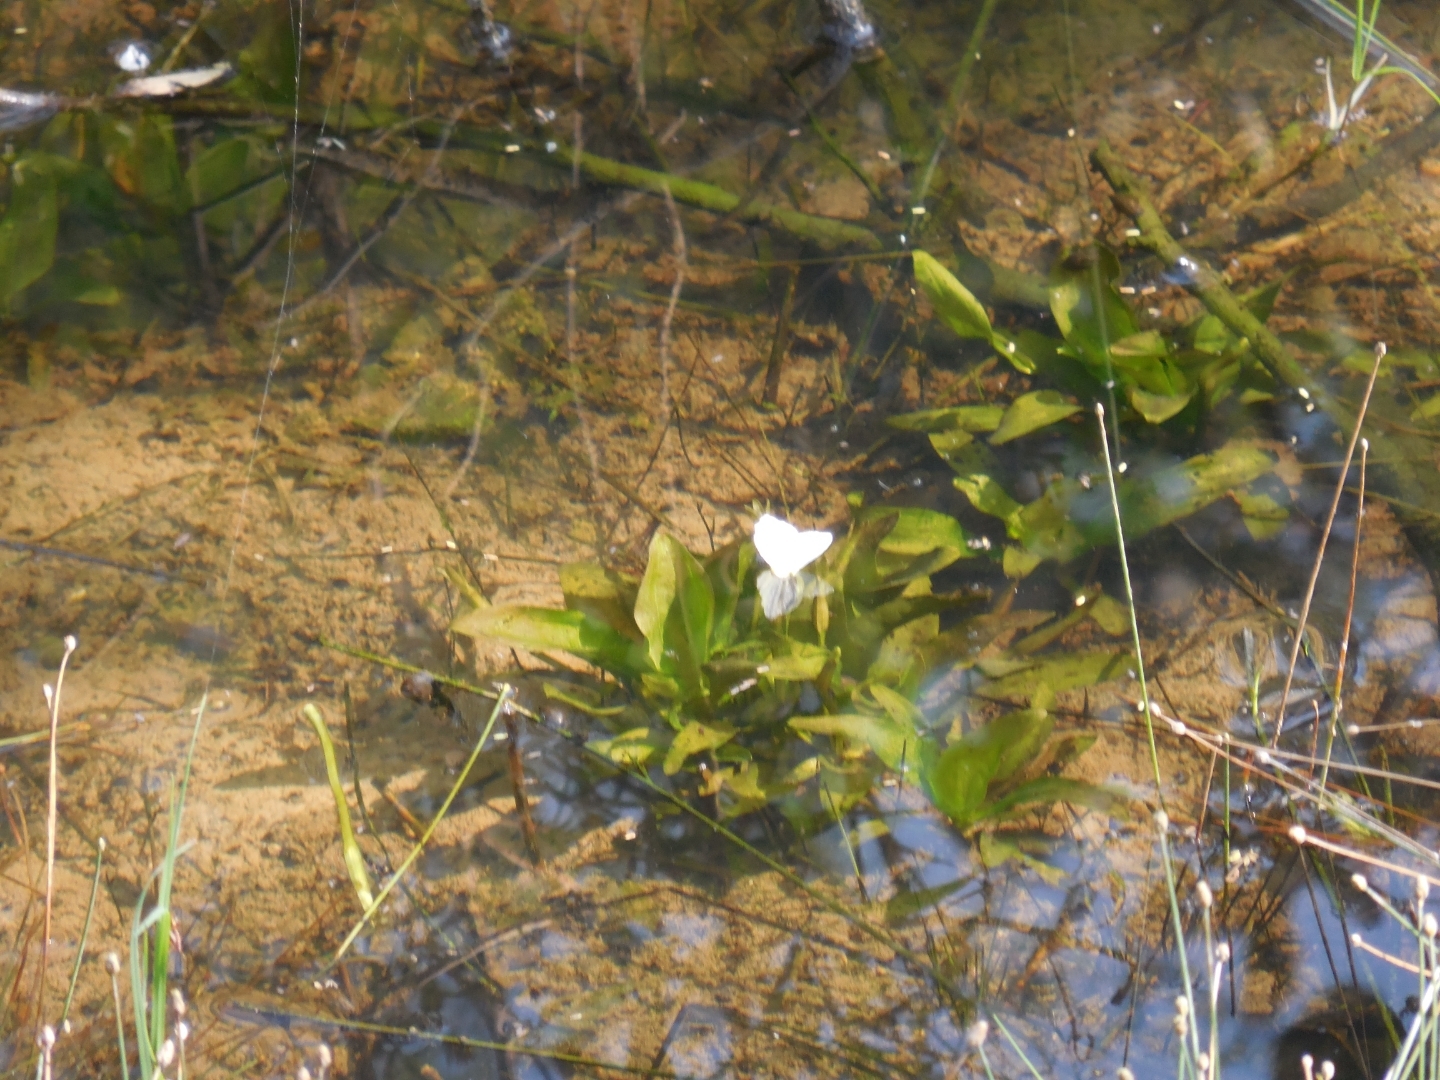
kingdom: Plantae
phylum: Tracheophyta
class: Liliopsida
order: Alismatales
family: Hydrocharitaceae
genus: Ottelia
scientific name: Ottelia alismoides
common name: Duck-lettuce
